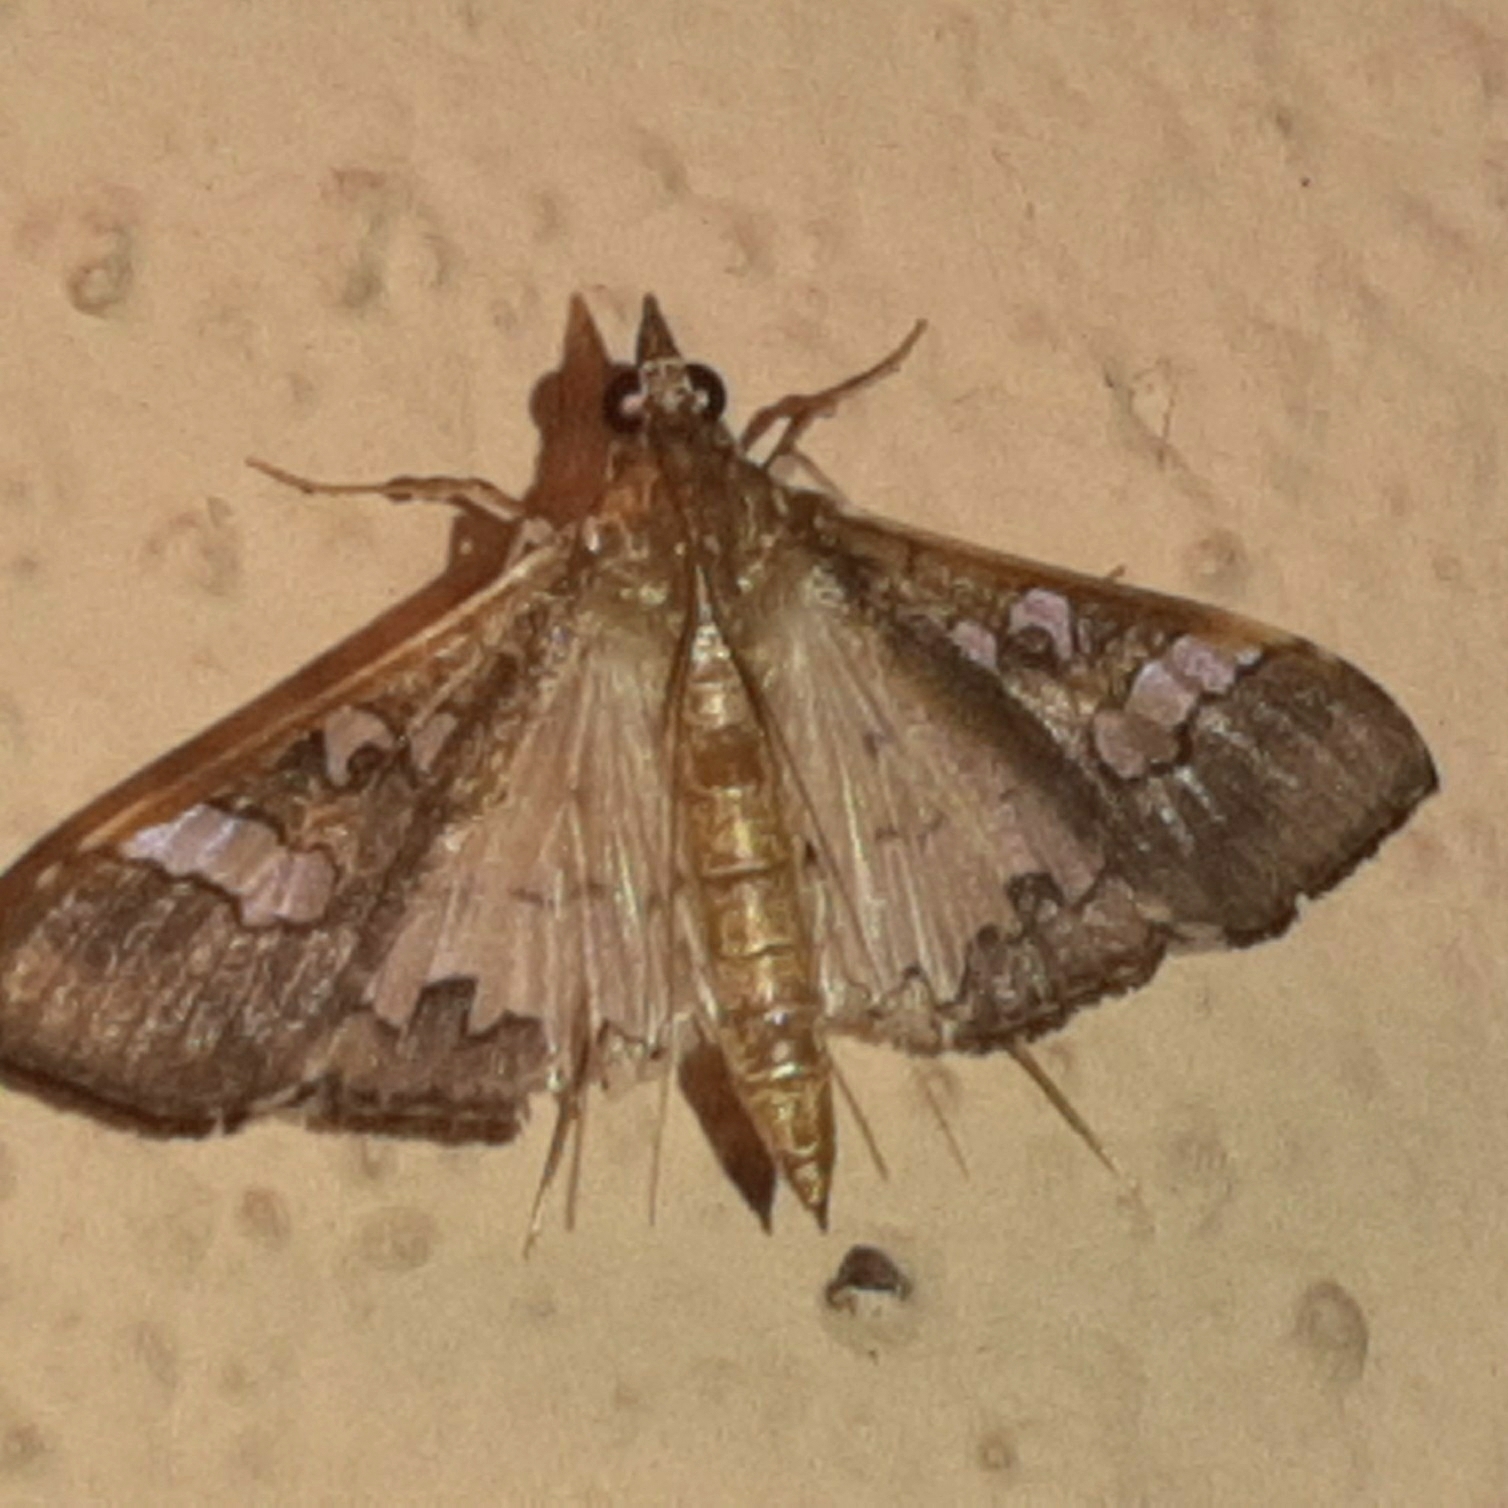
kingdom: Animalia
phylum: Arthropoda
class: Insecta
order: Lepidoptera
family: Crambidae
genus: Maruca
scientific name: Maruca vitrata
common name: Maruca pod borer
